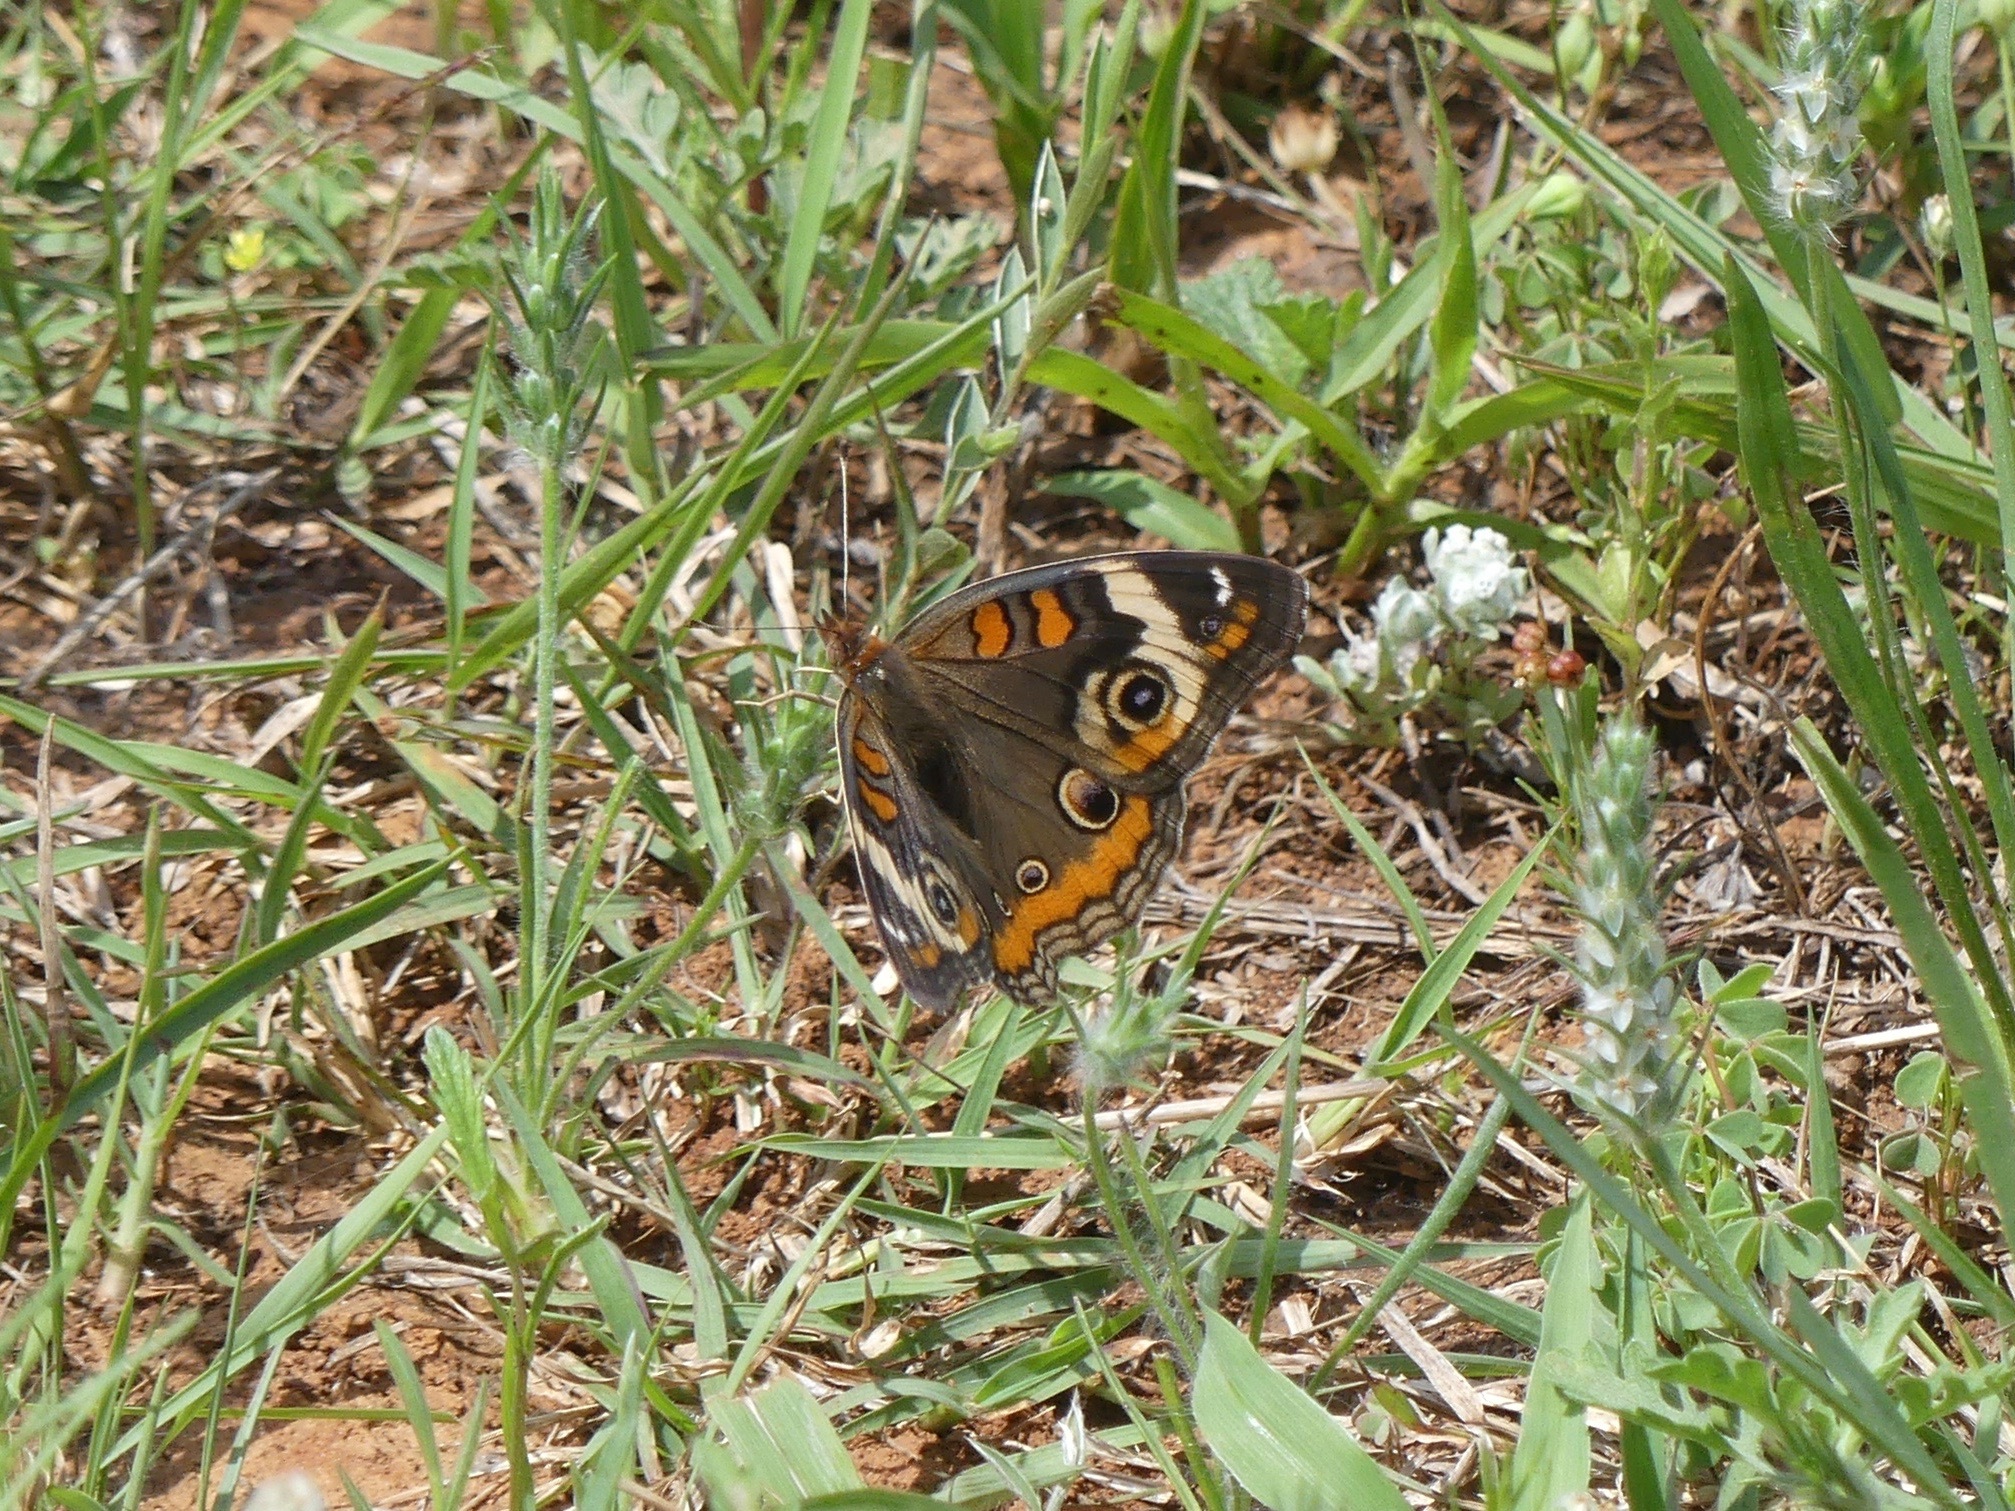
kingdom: Animalia
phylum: Arthropoda
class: Insecta
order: Lepidoptera
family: Nymphalidae
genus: Junonia
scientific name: Junonia coenia
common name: Common buckeye
